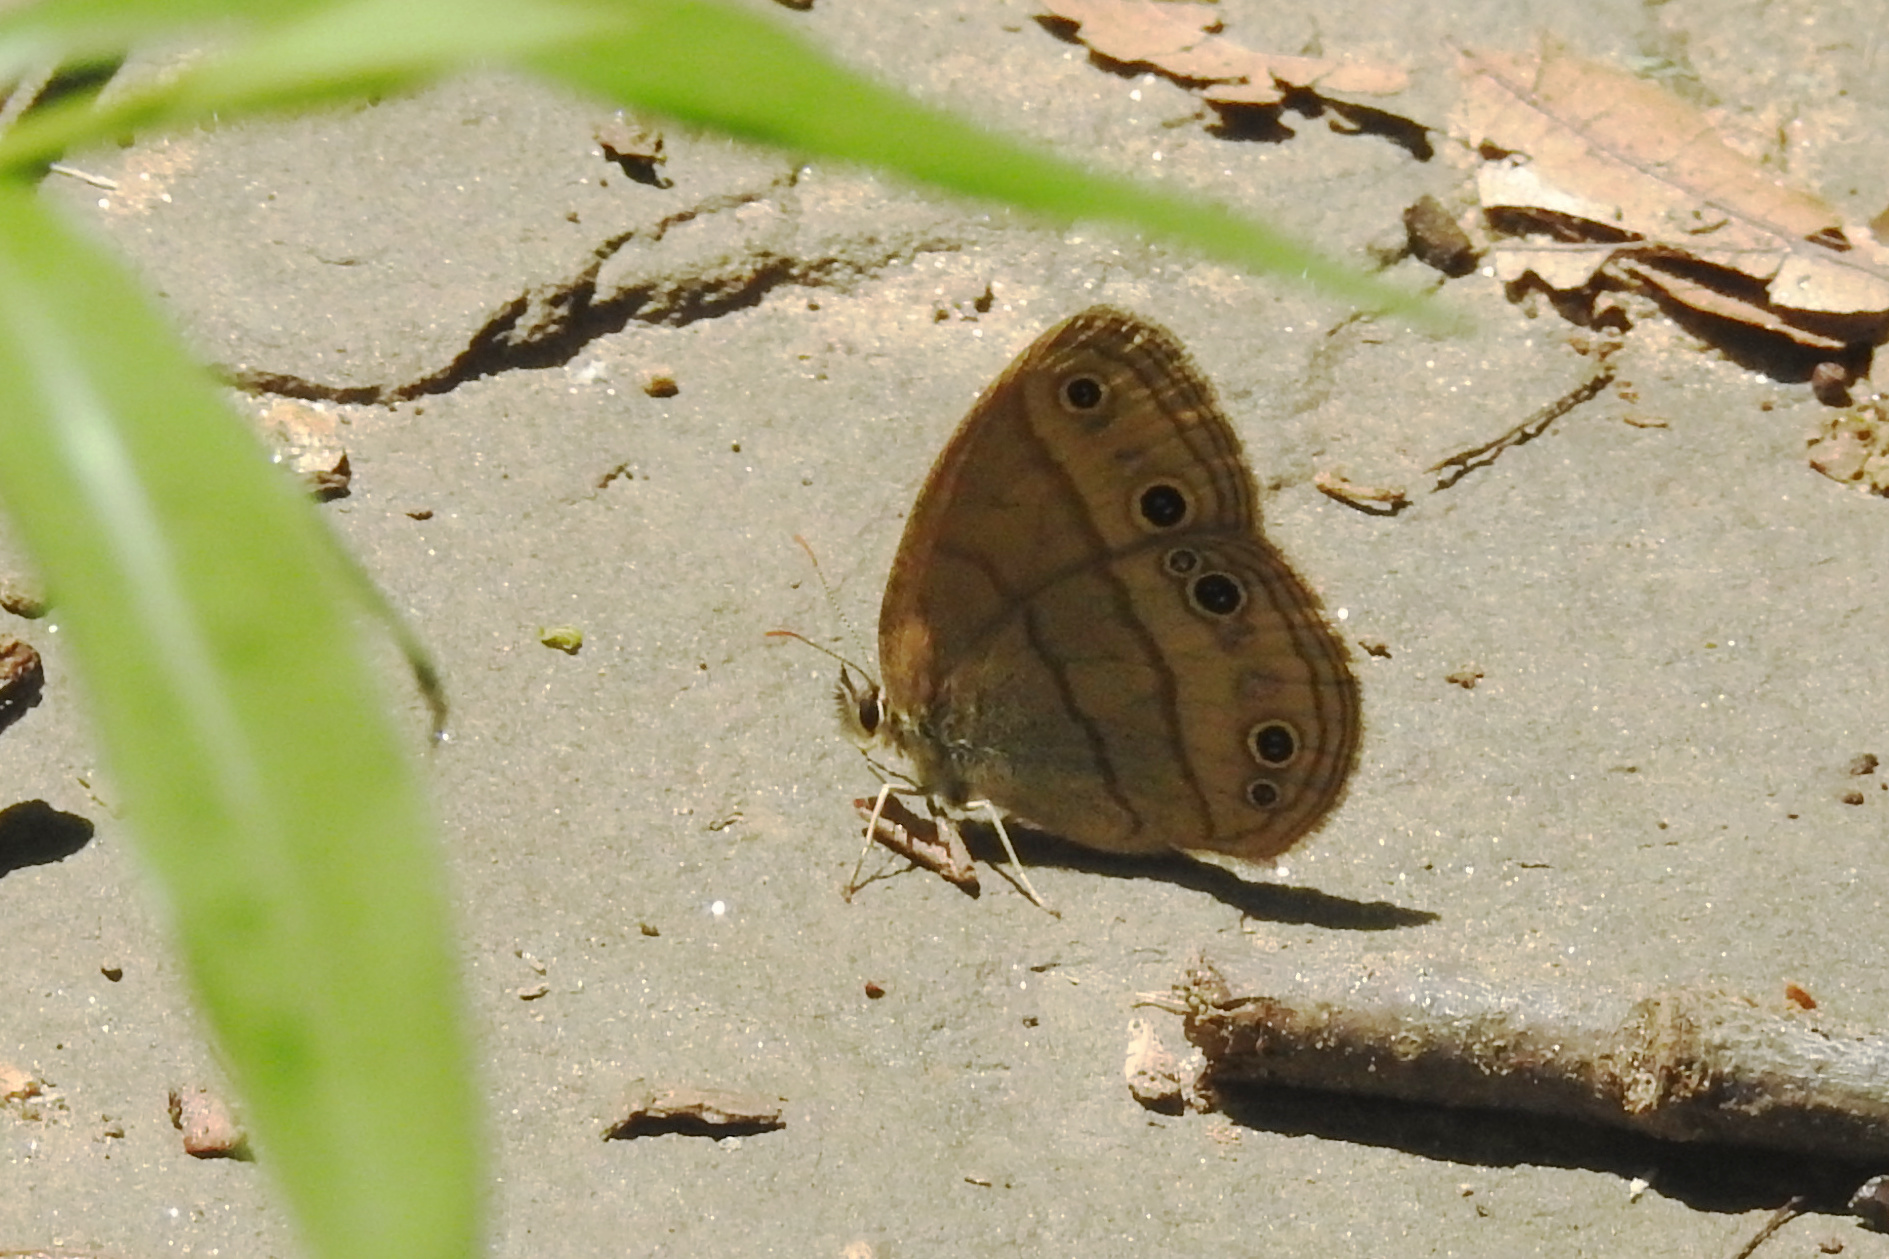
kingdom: Animalia
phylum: Arthropoda
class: Insecta
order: Lepidoptera
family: Nymphalidae
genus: Euptychia
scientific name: Euptychia cymela
